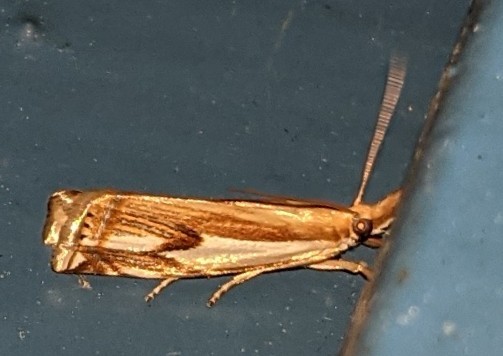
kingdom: Animalia
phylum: Arthropoda
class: Insecta
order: Lepidoptera
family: Crambidae
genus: Crambus
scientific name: Crambus agitatellus
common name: Double-banded grass-veneer
